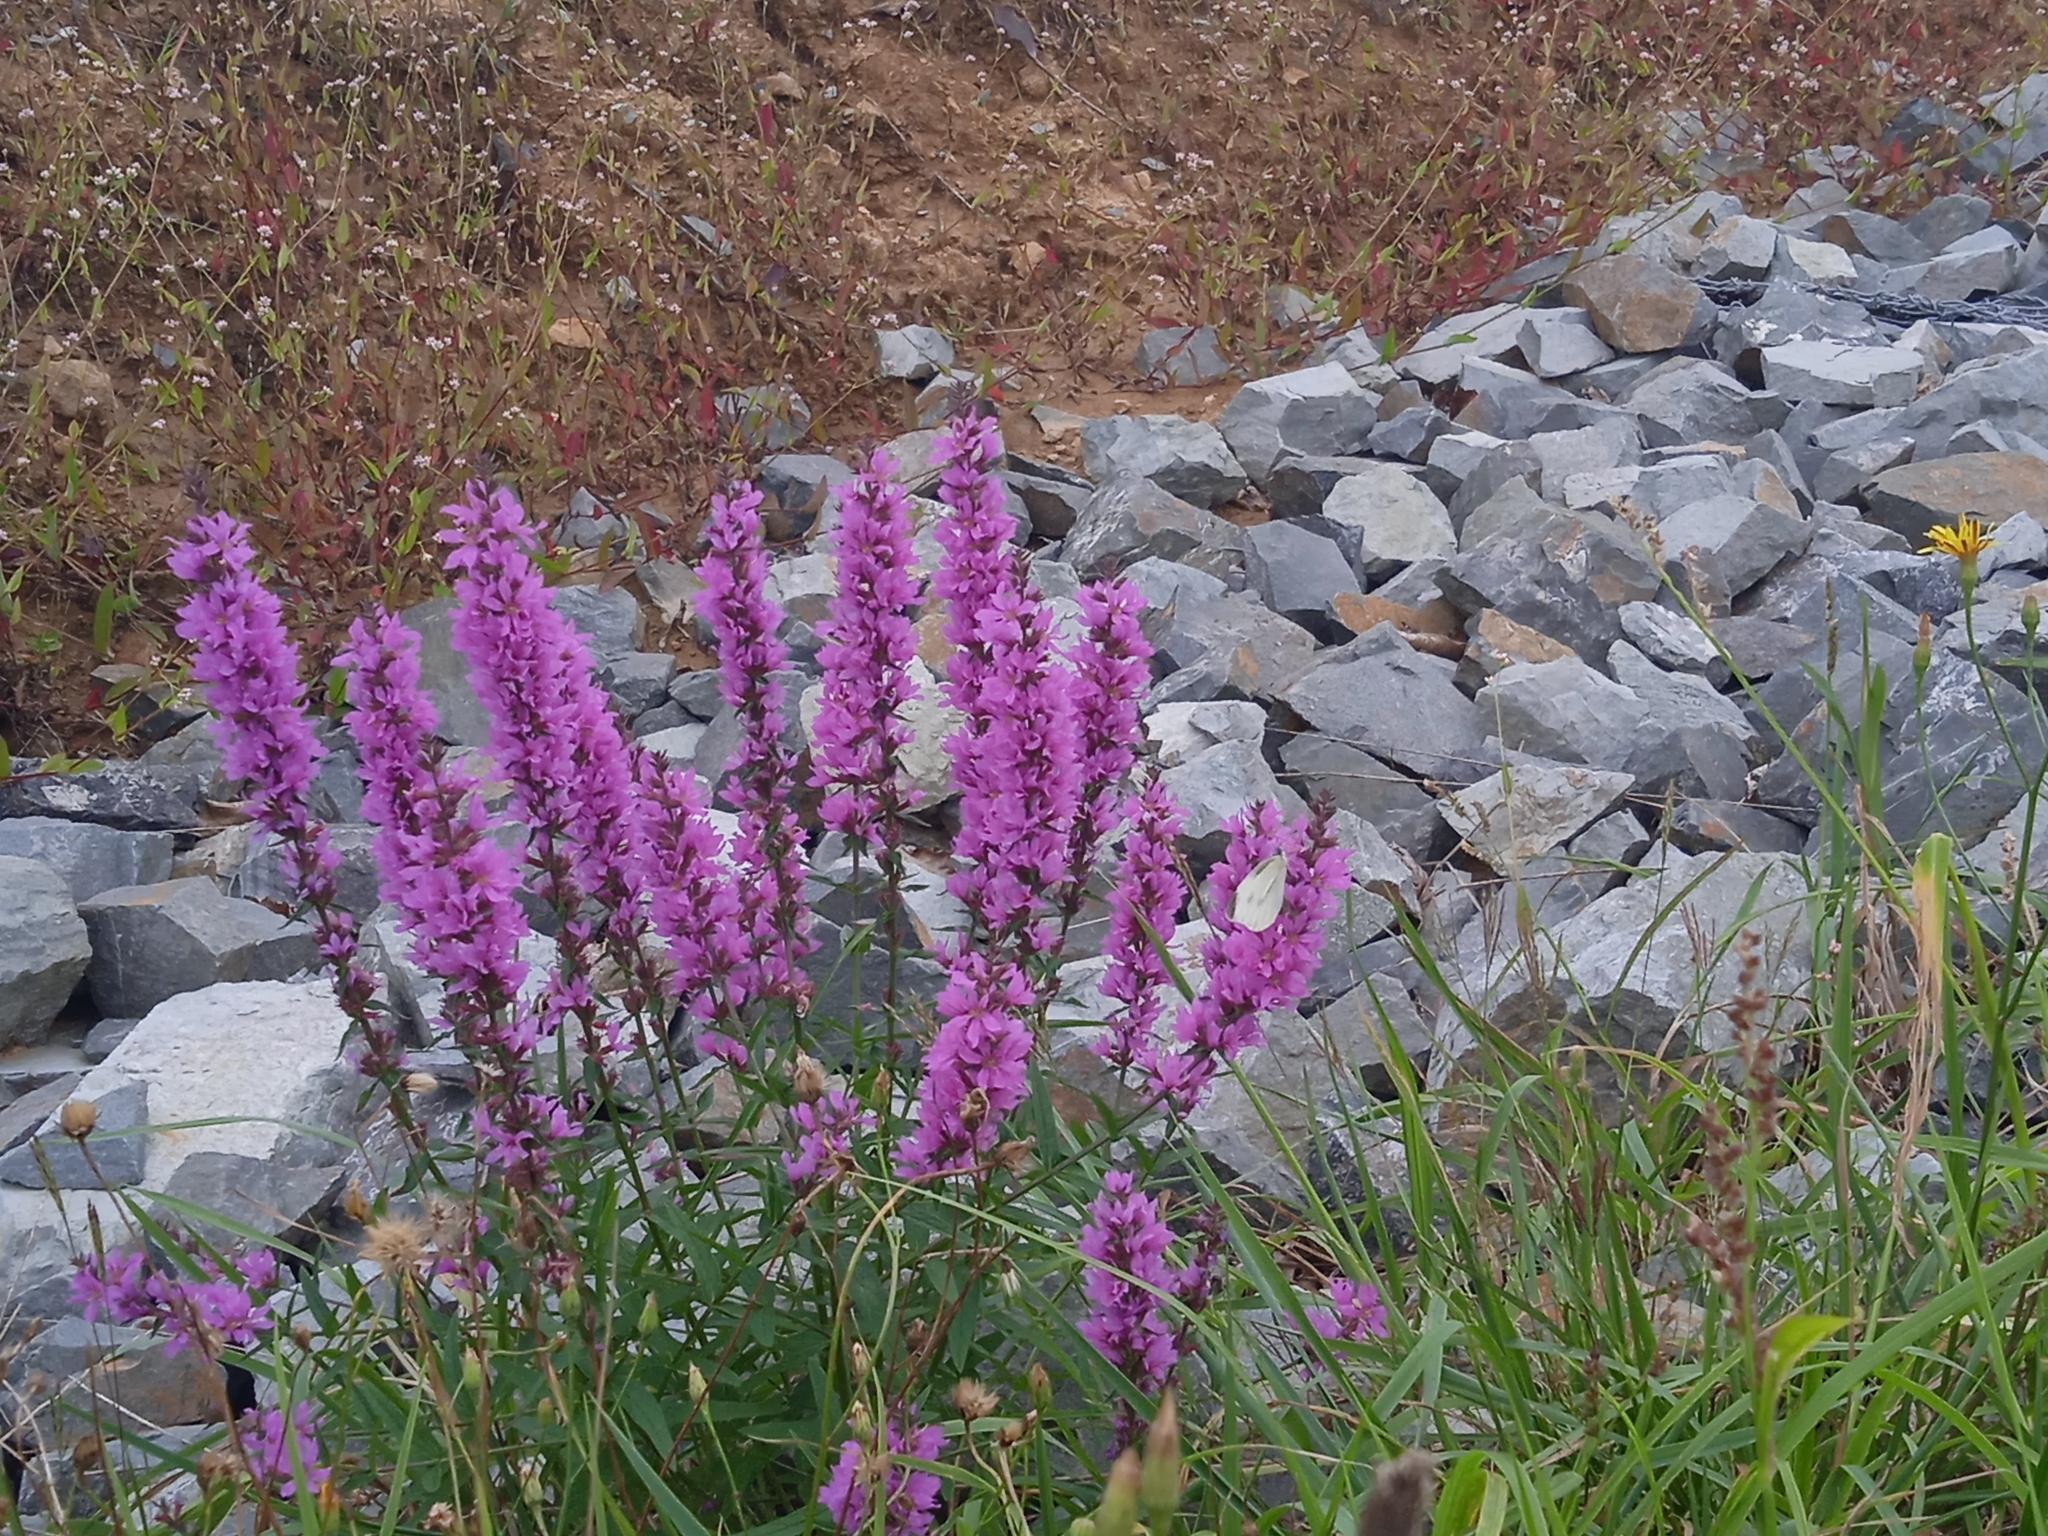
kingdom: Plantae
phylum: Tracheophyta
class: Magnoliopsida
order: Myrtales
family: Lythraceae
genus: Lythrum
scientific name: Lythrum salicaria
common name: Purple loosestrife
